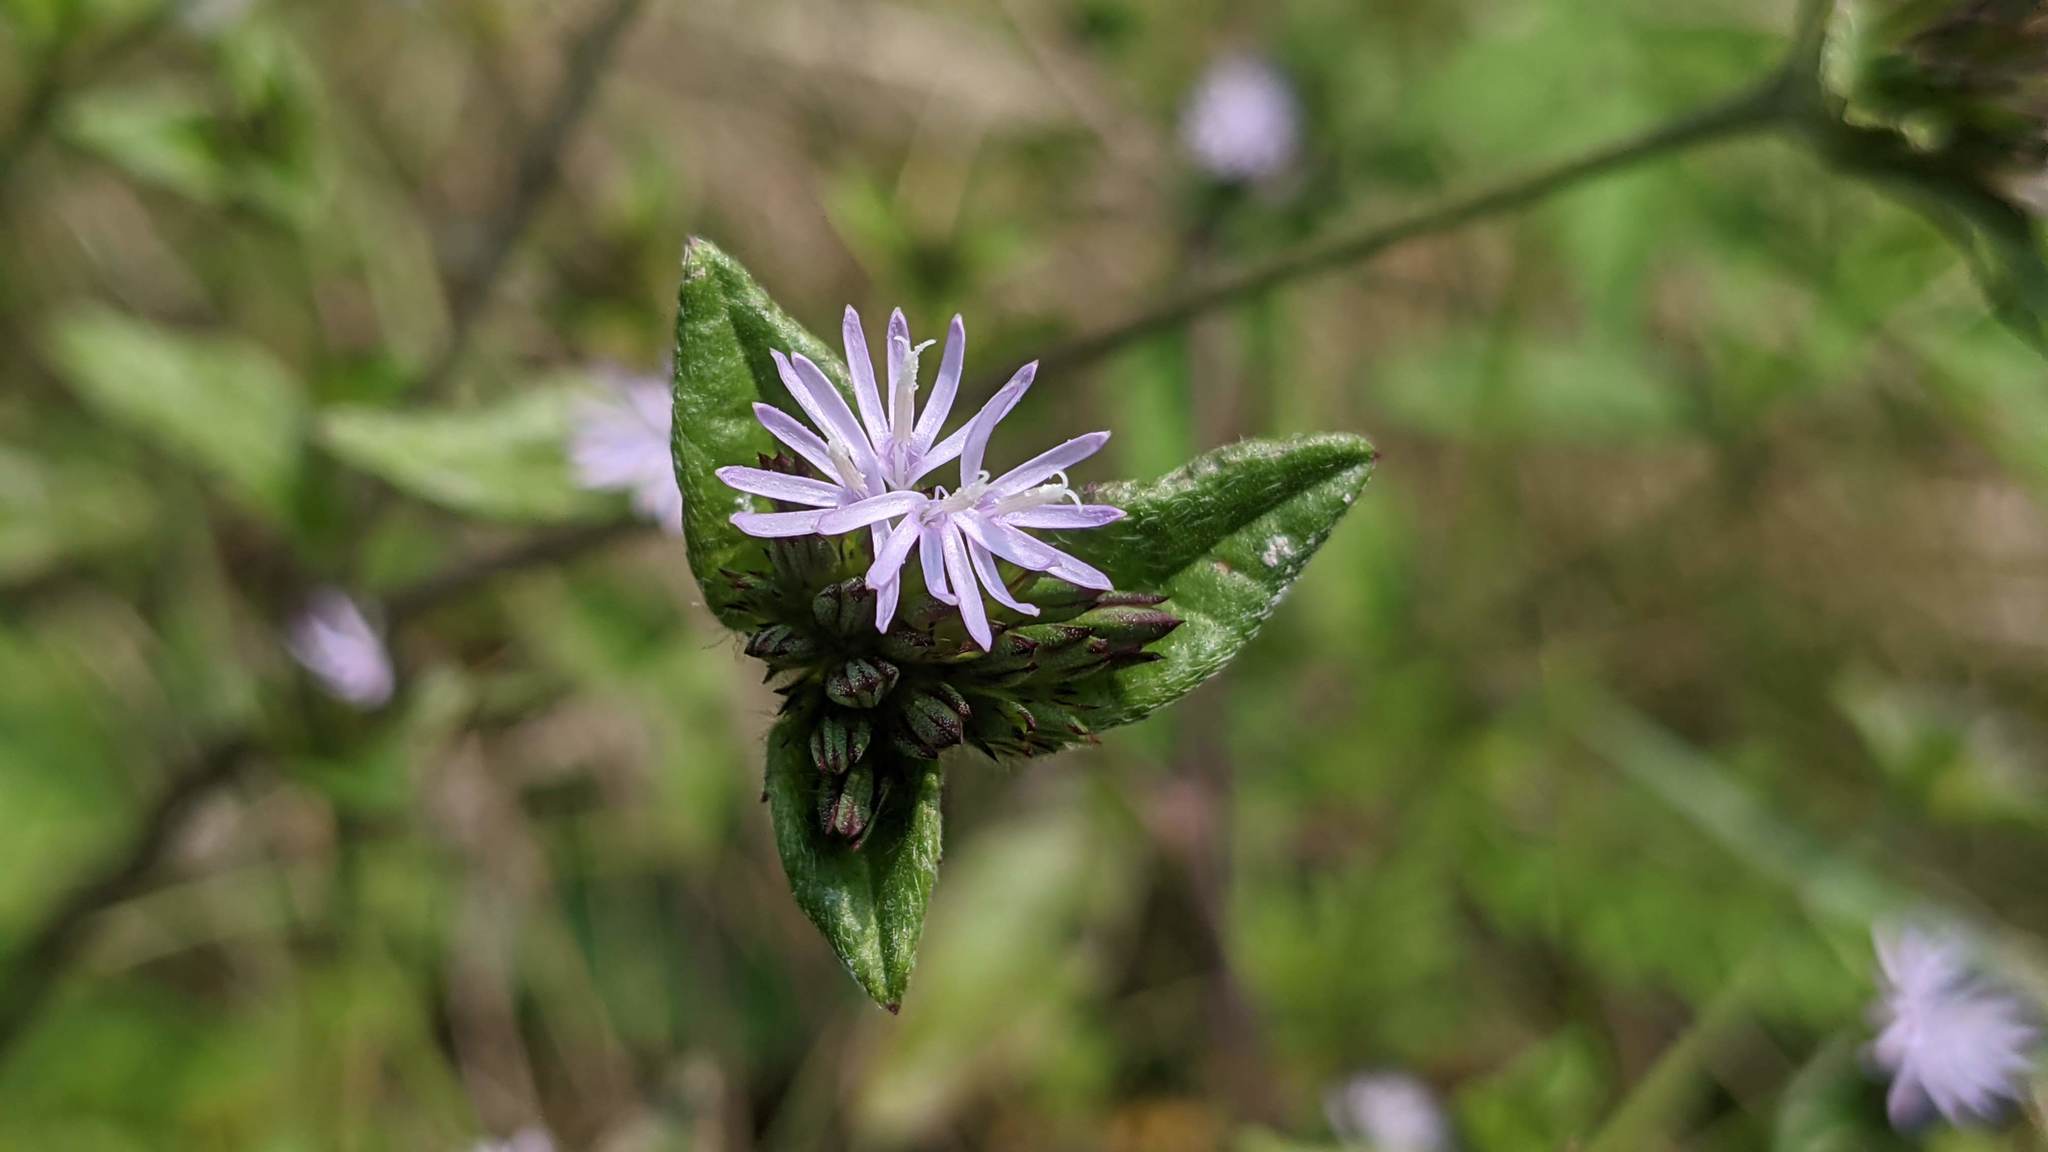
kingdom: Plantae
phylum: Tracheophyta
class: Magnoliopsida
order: Asterales
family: Asteraceae
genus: Elephantopus
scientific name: Elephantopus carolinianus
